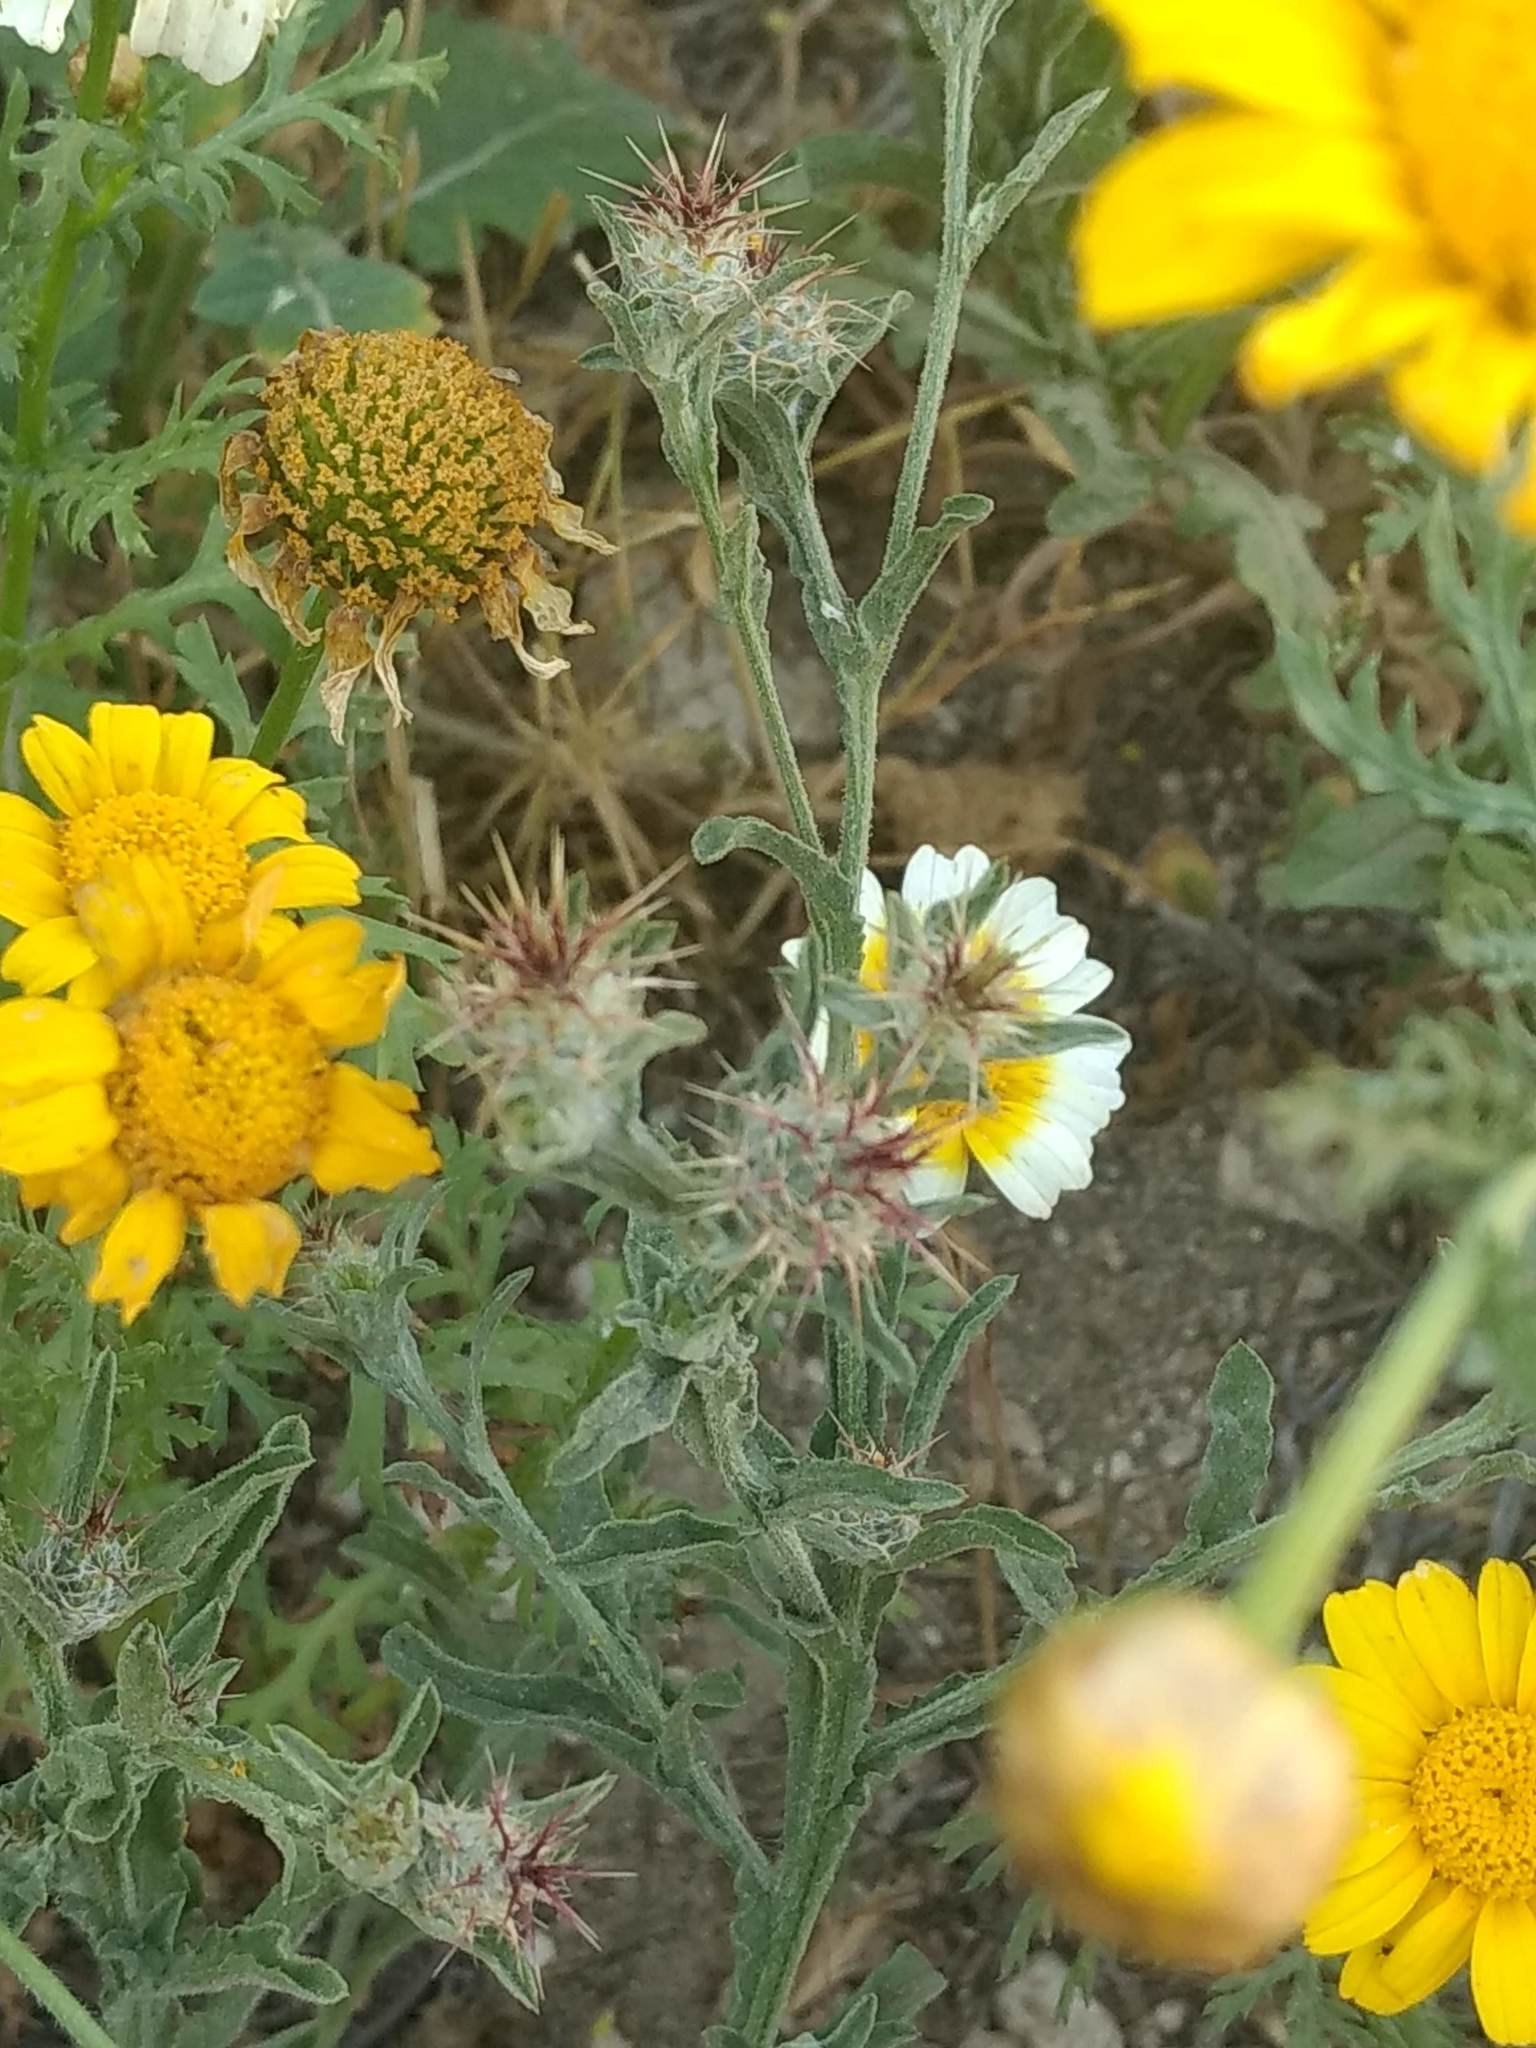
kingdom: Plantae
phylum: Tracheophyta
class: Magnoliopsida
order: Asterales
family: Asteraceae
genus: Centaurea
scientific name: Centaurea melitensis
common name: Maltese star-thistle
